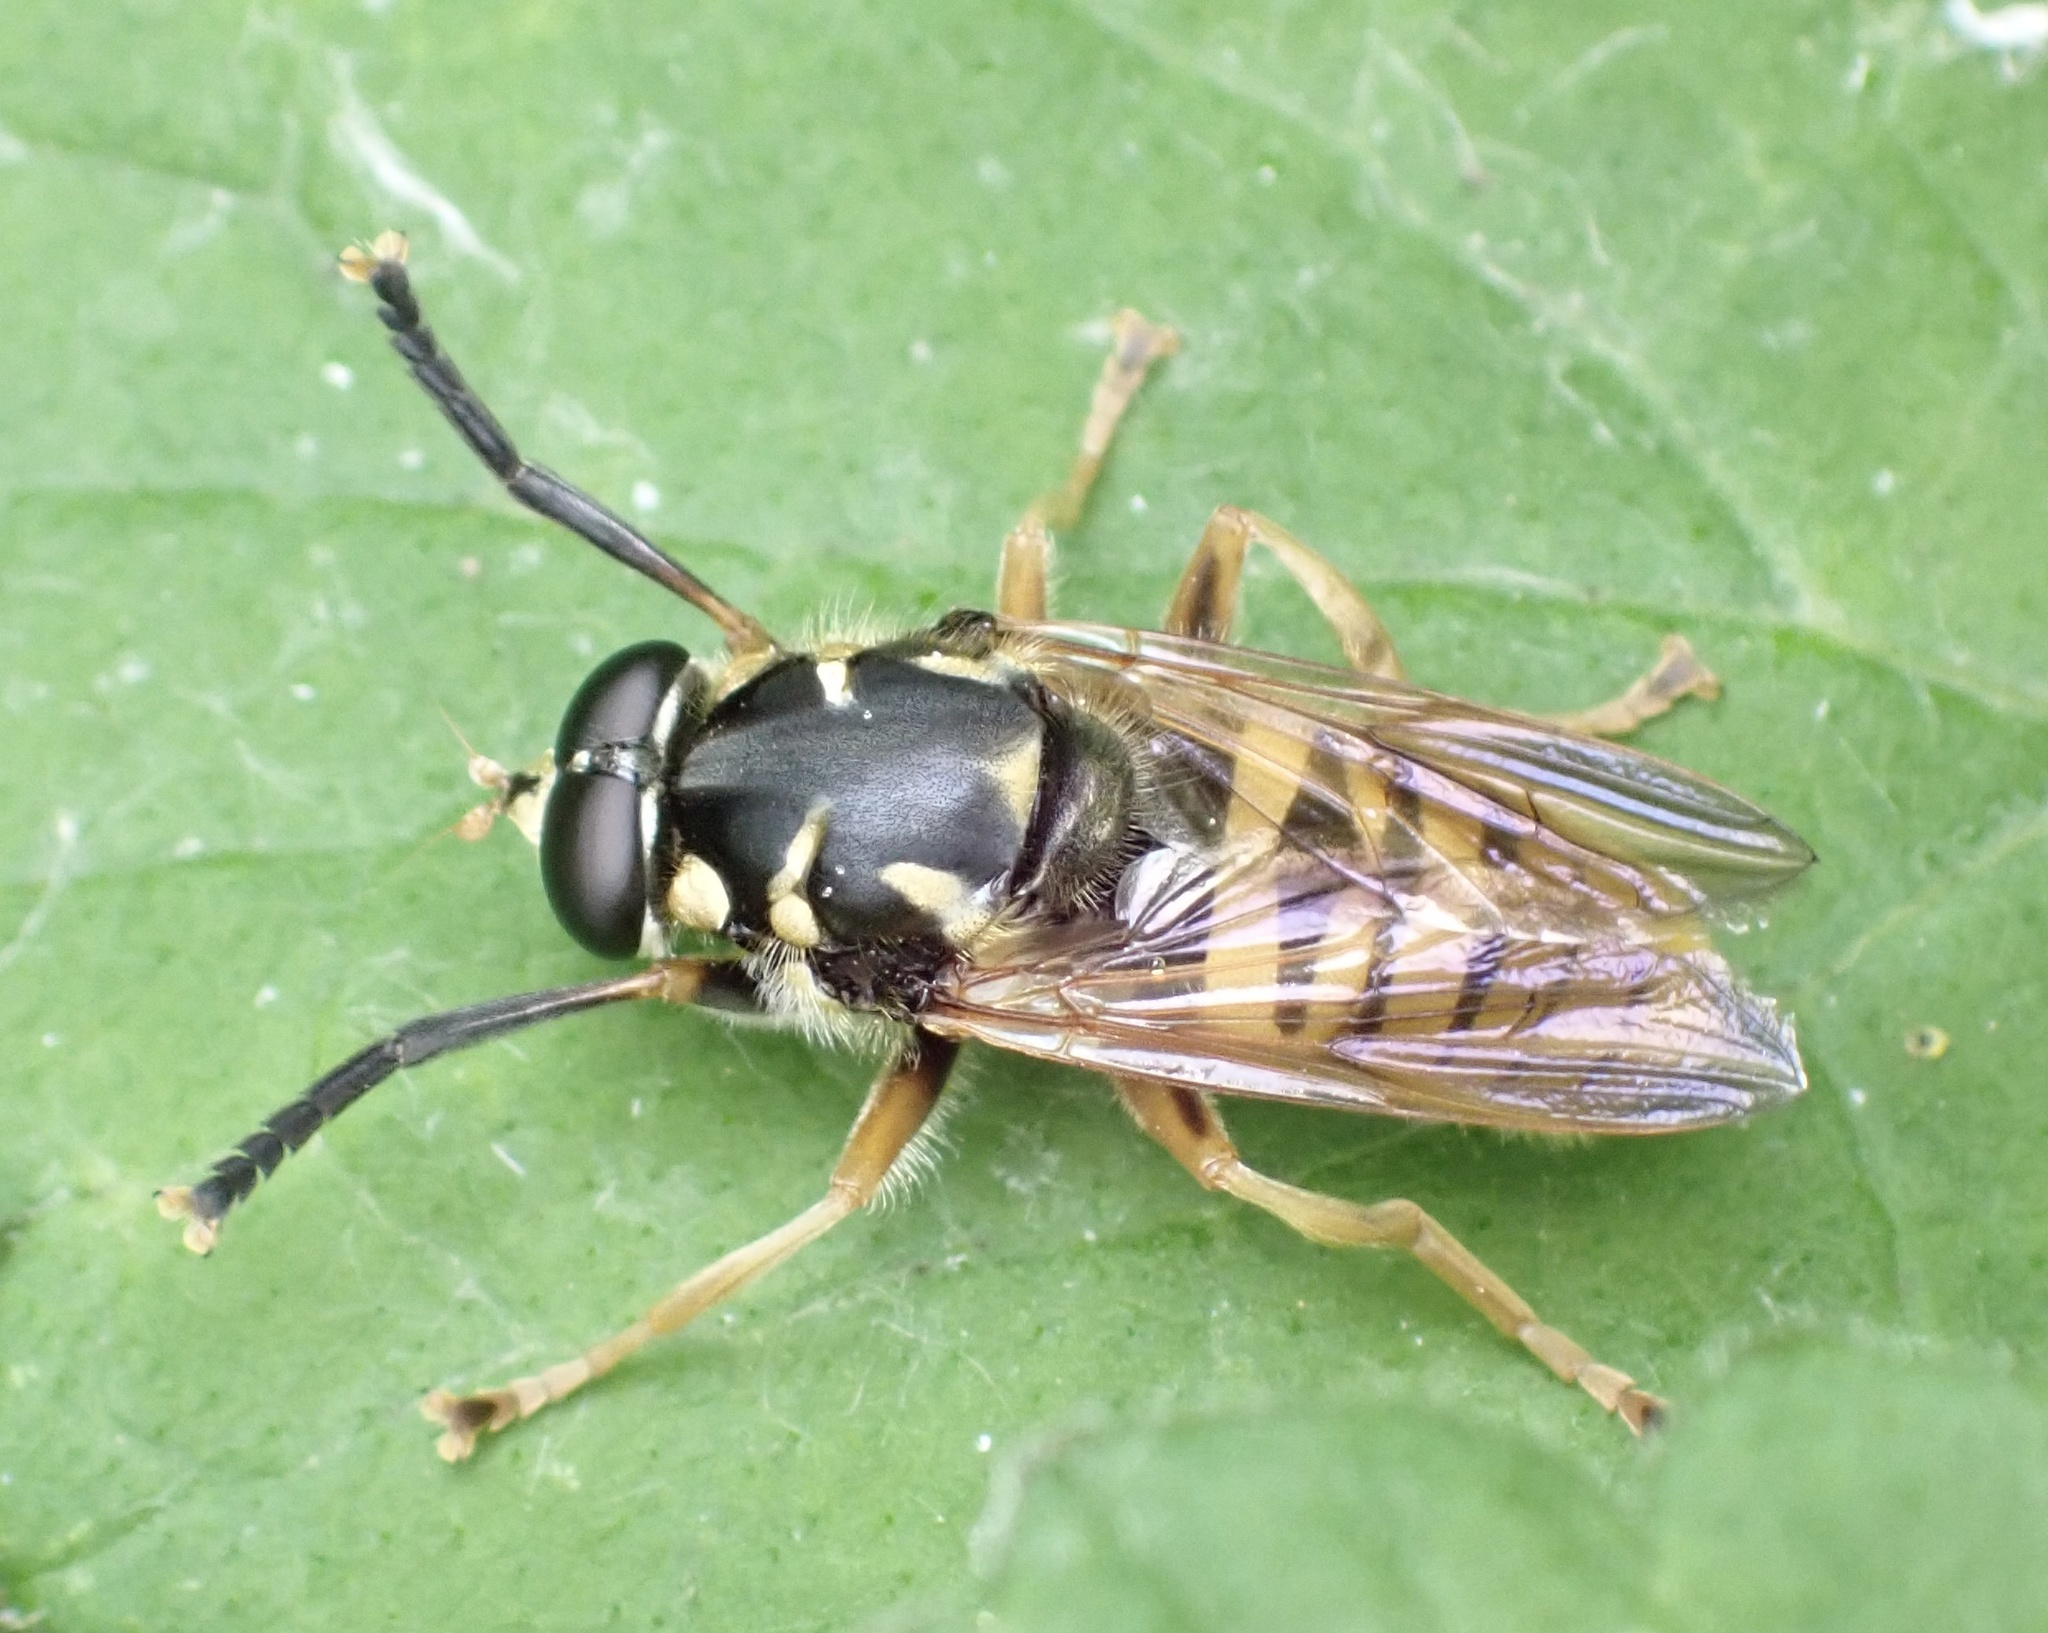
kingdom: Animalia
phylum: Arthropoda
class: Insecta
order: Diptera
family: Syrphidae
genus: Temnostoma
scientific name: Temnostoma vespiforme
